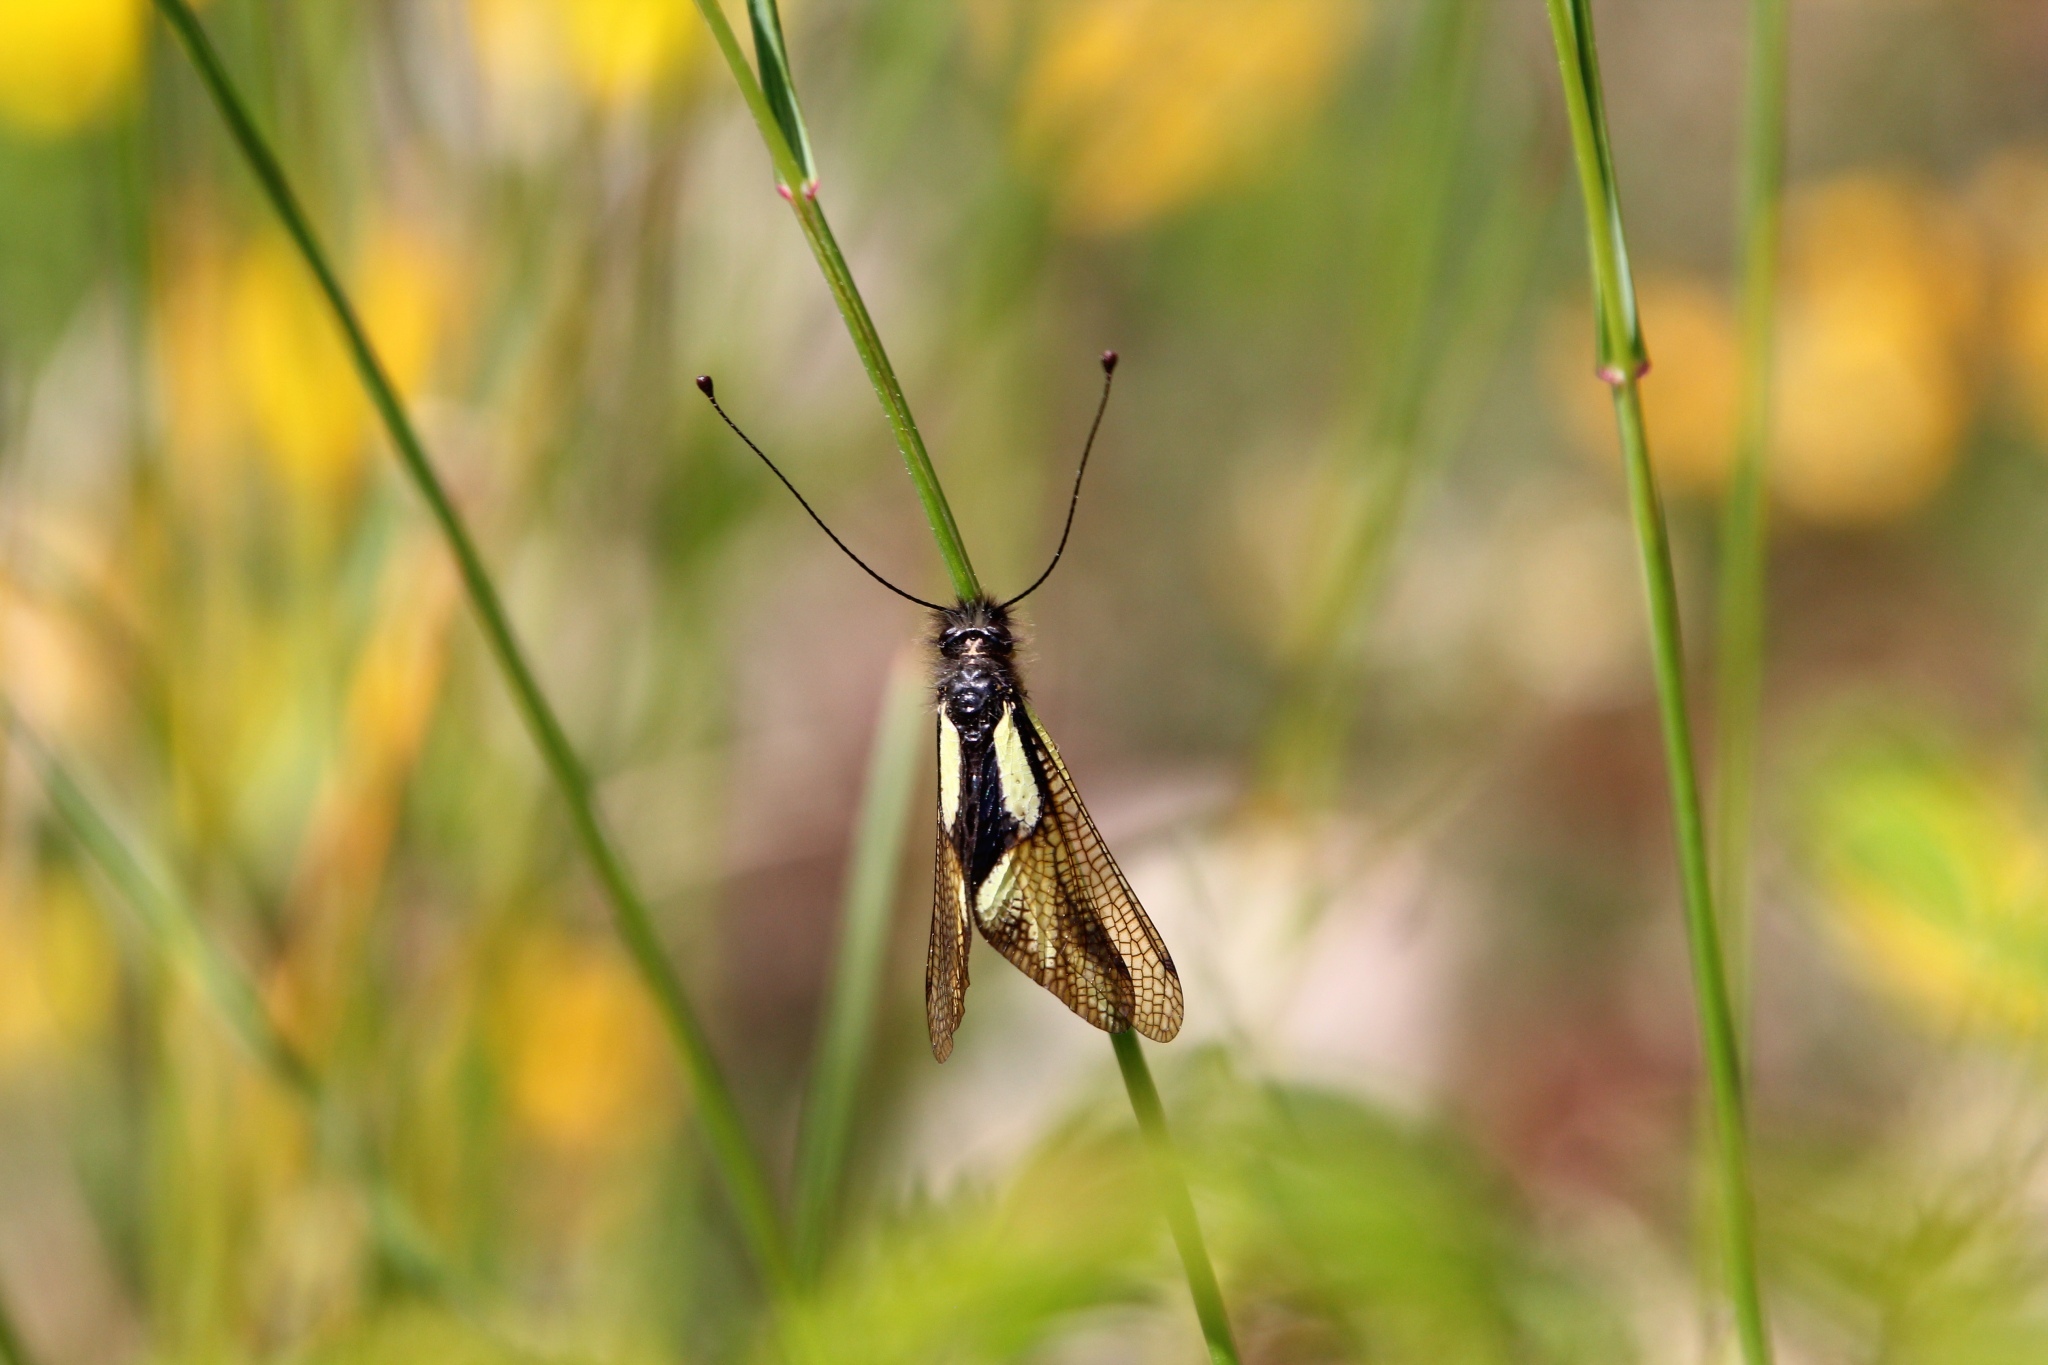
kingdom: Animalia
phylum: Arthropoda
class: Insecta
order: Neuroptera
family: Ascalaphidae
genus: Libelloides
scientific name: Libelloides coccajus
